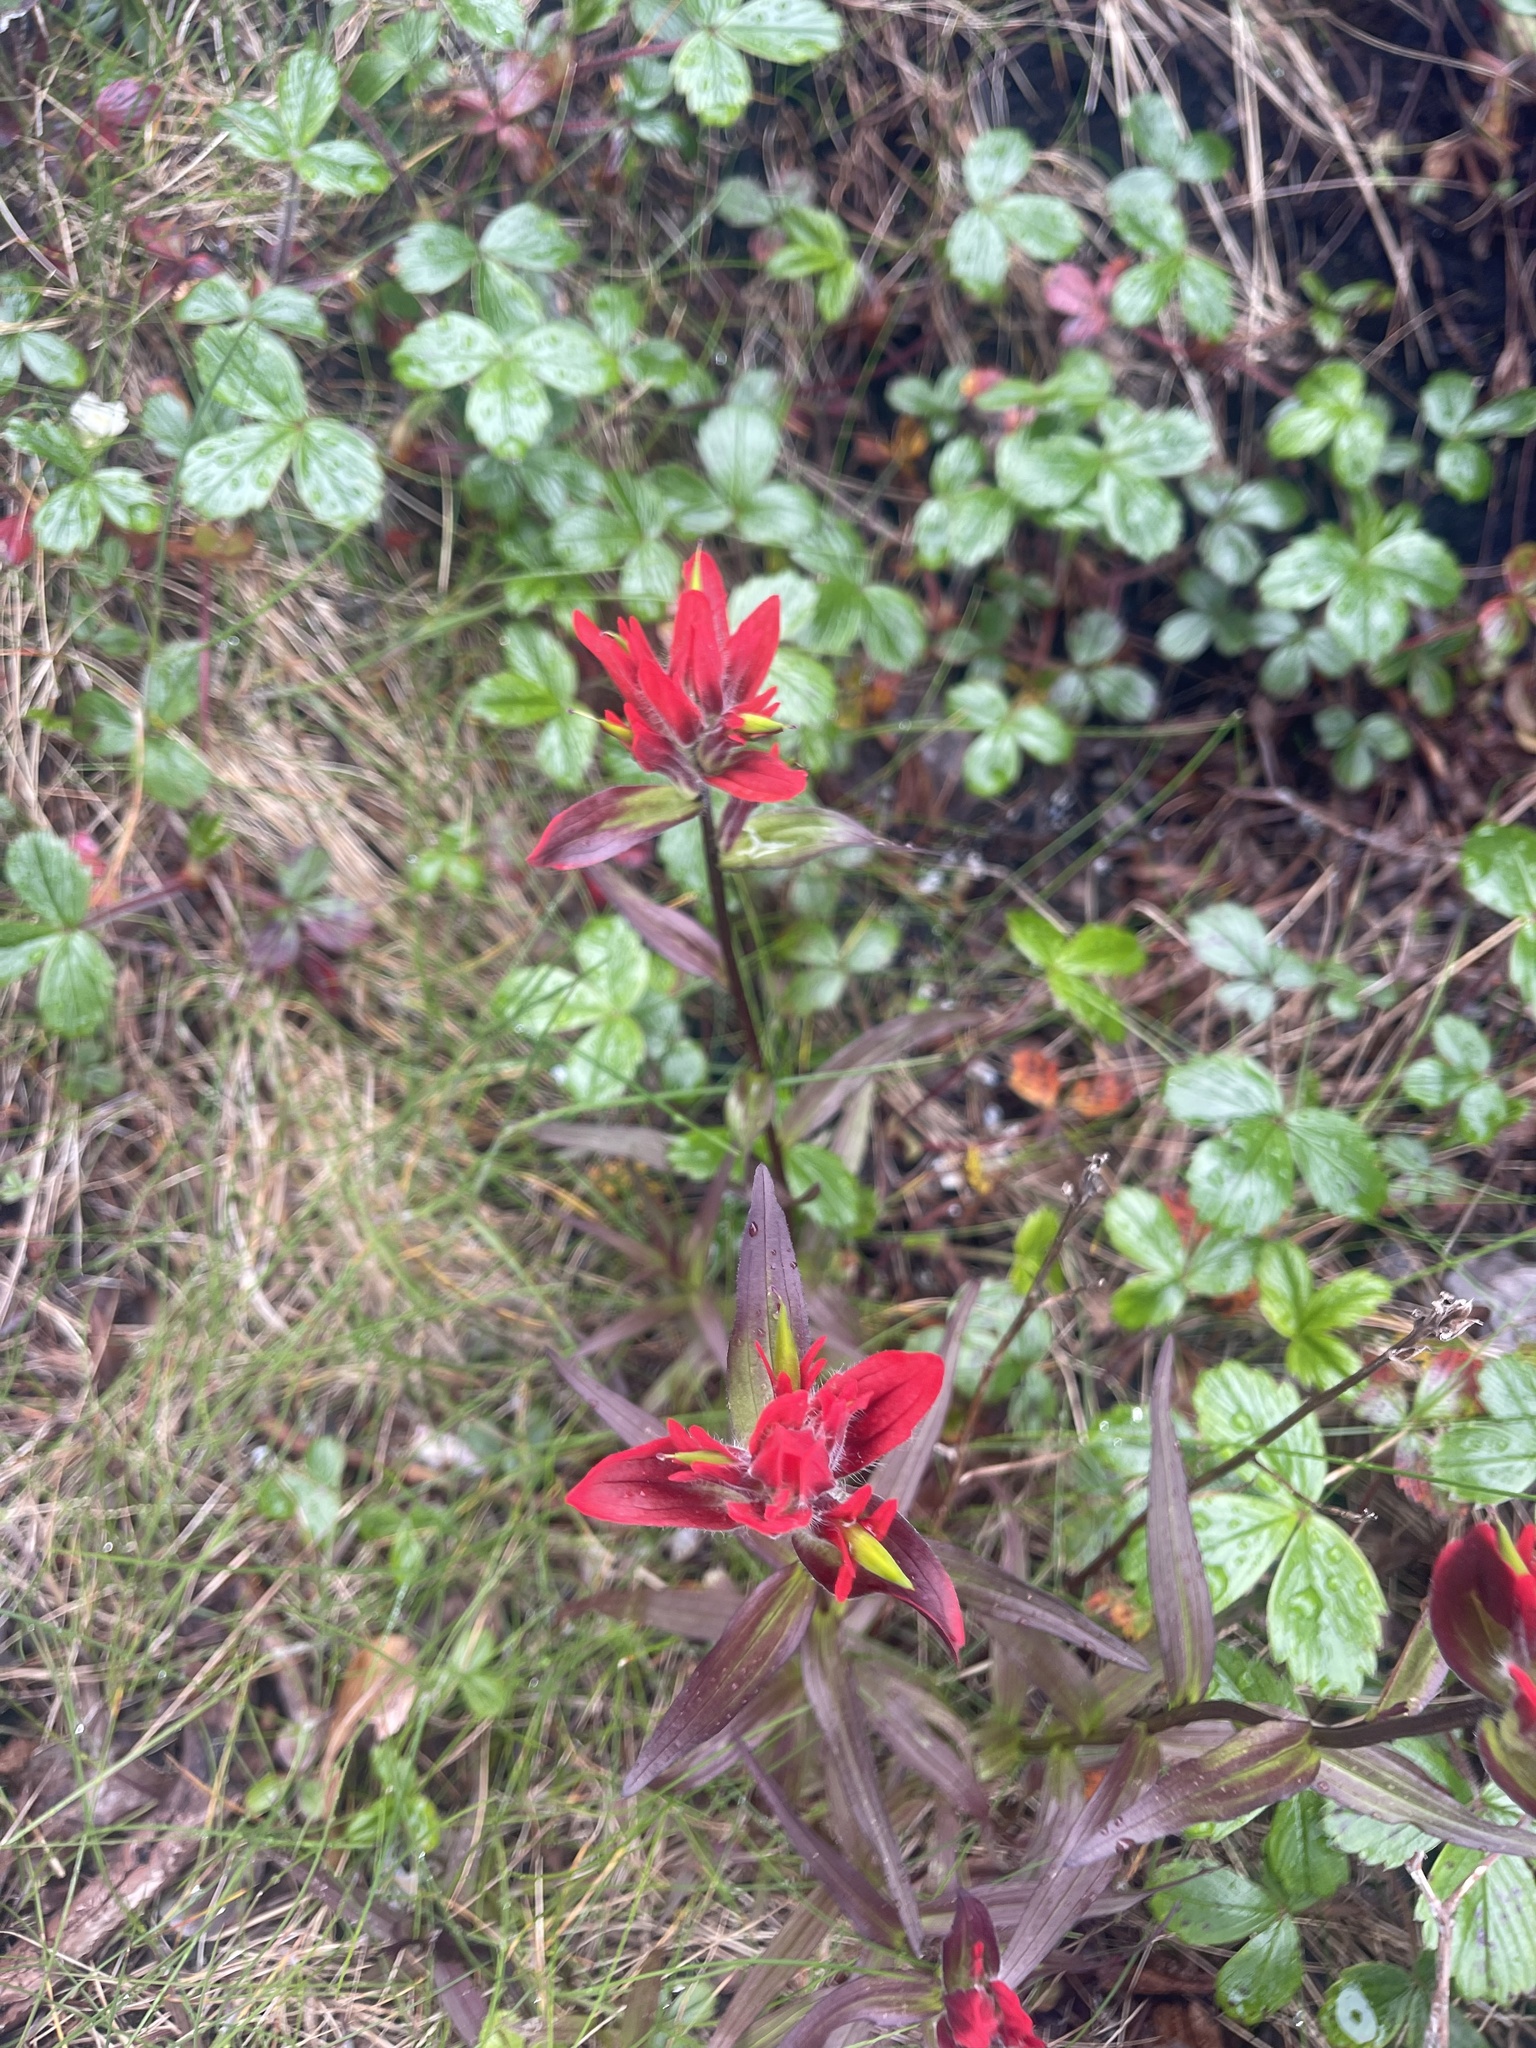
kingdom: Plantae
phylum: Tracheophyta
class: Magnoliopsida
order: Lamiales
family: Orobanchaceae
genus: Castilleja
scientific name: Castilleja miniata
